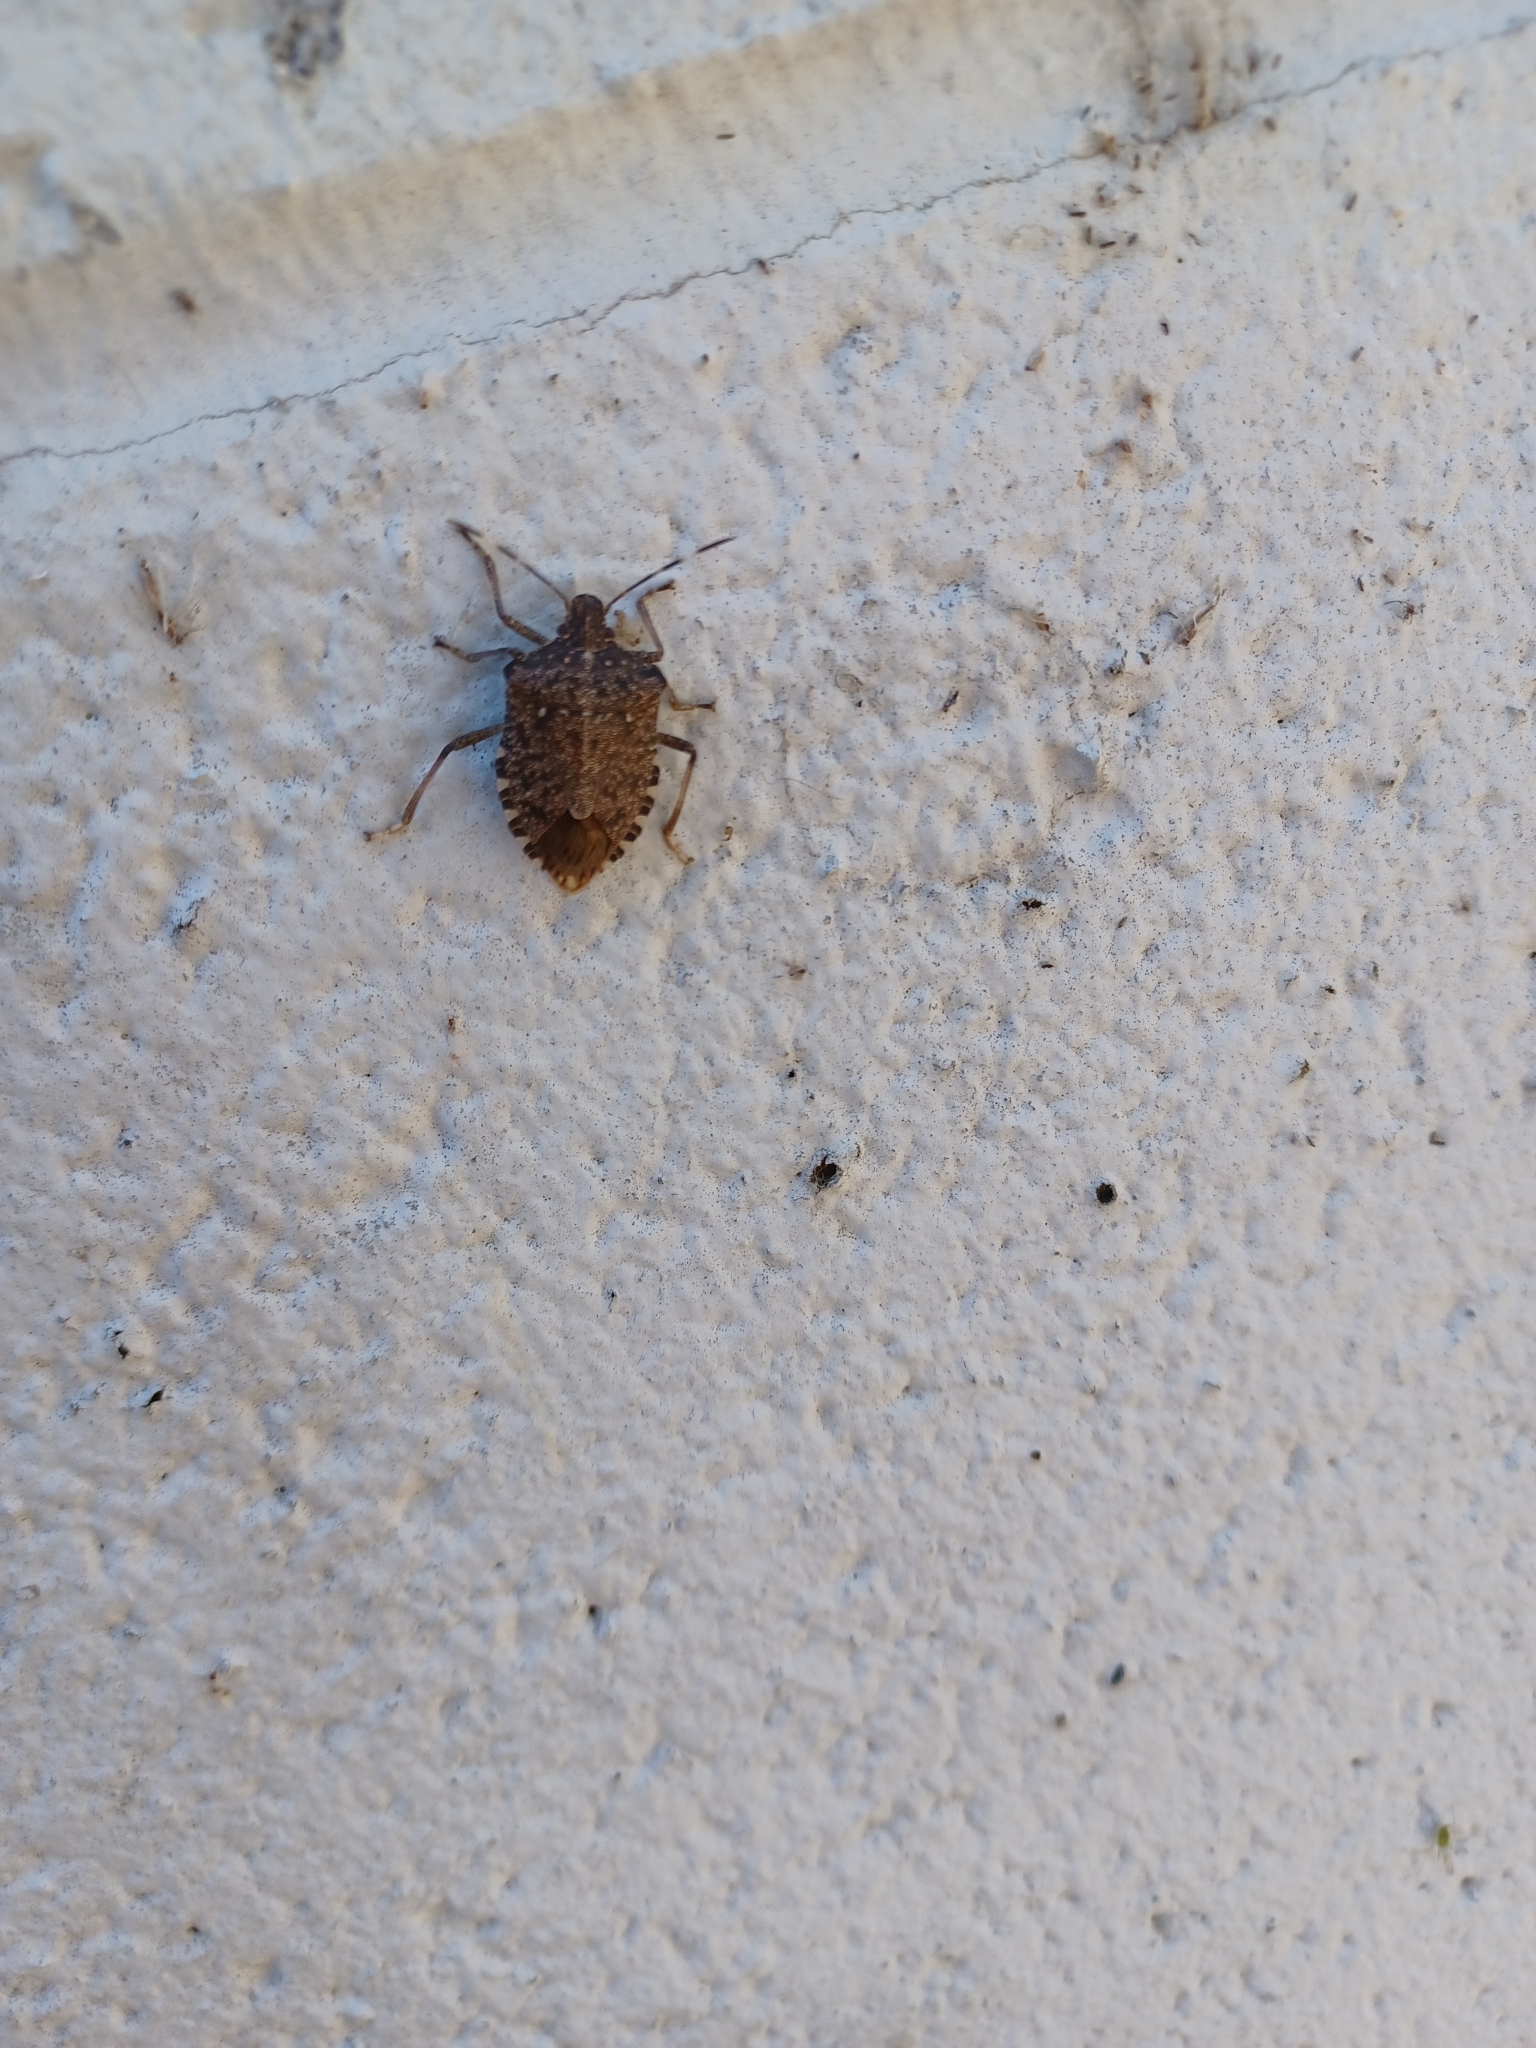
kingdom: Animalia
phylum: Arthropoda
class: Insecta
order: Hemiptera
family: Pentatomidae
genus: Halyomorpha
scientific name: Halyomorpha halys
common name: Brown marmorated stink bug
